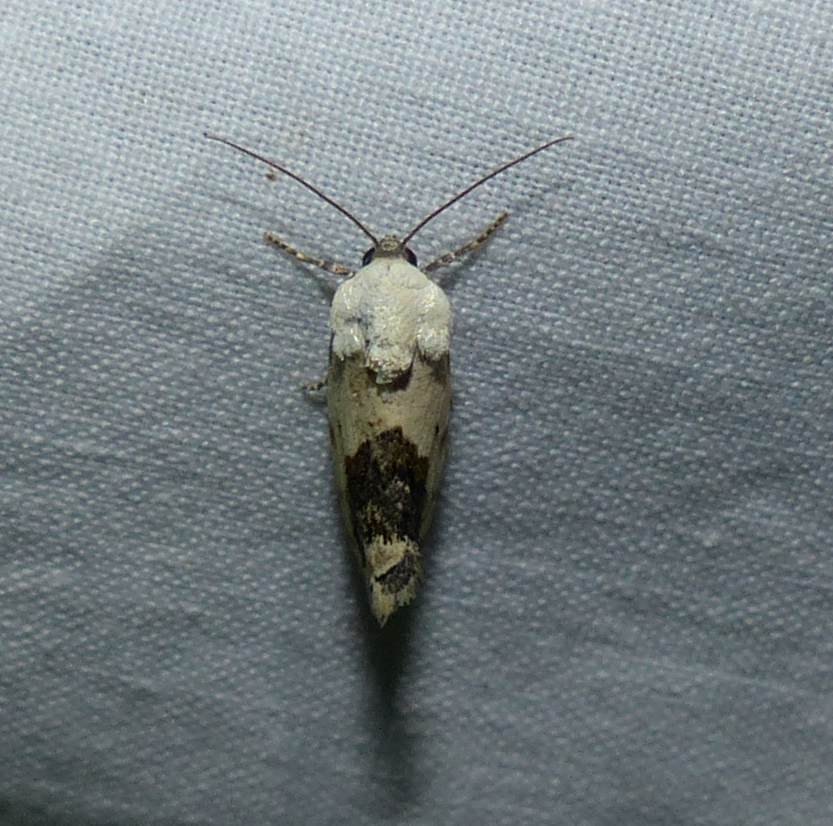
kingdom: Animalia
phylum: Arthropoda
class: Insecta
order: Lepidoptera
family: Noctuidae
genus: Acontia
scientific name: Acontia erastrioides
